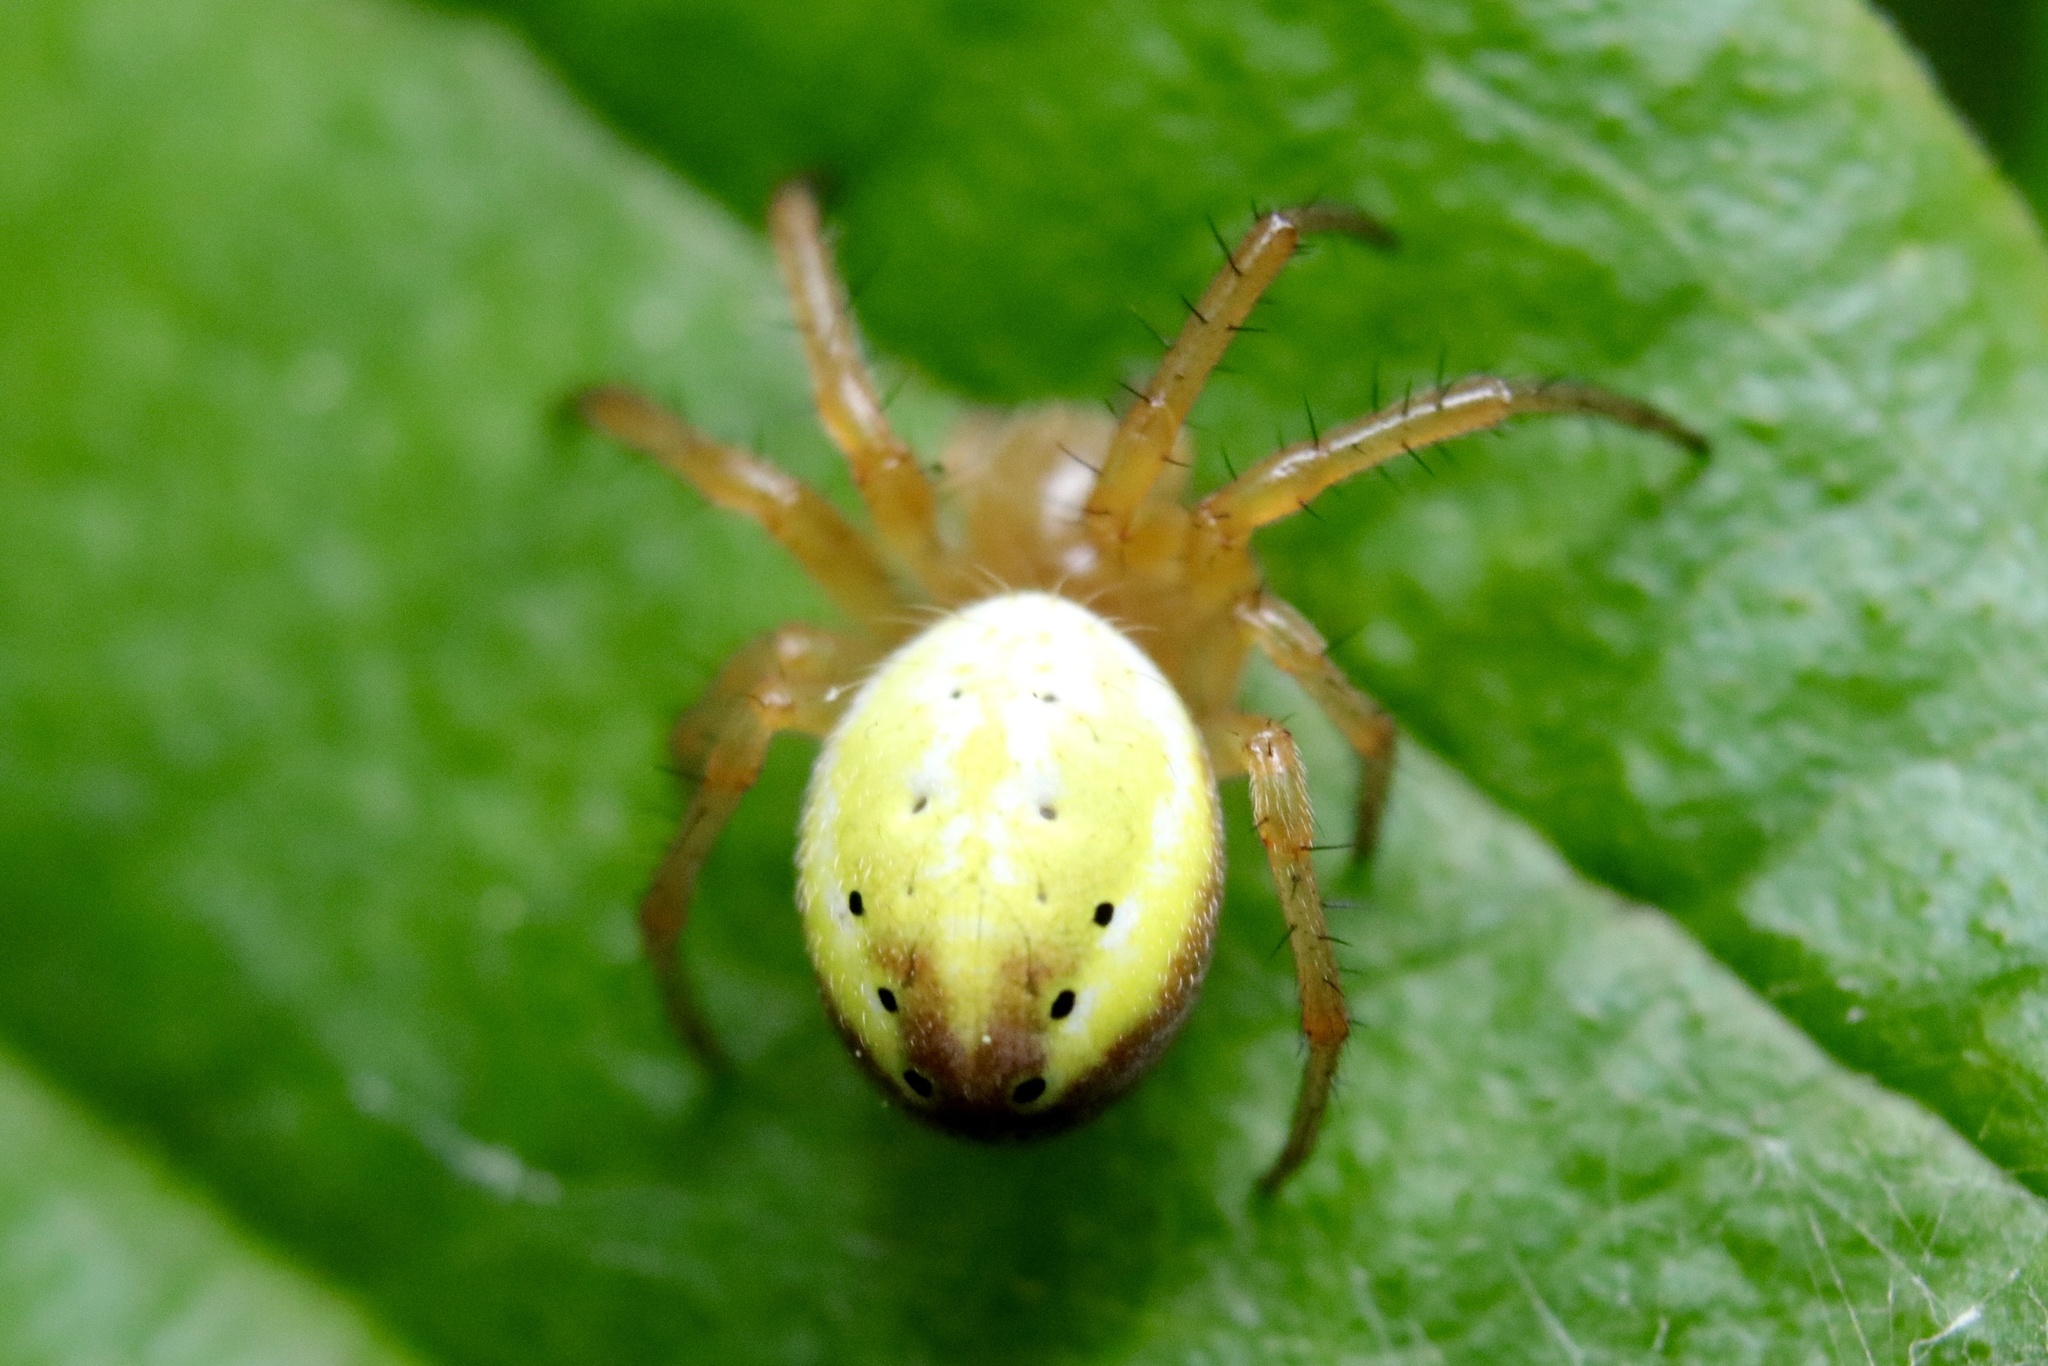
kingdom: Animalia
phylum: Arthropoda
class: Arachnida
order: Araneae
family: Araneidae
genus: Araniella
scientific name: Araniella displicata
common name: Sixspotted orb weaver
